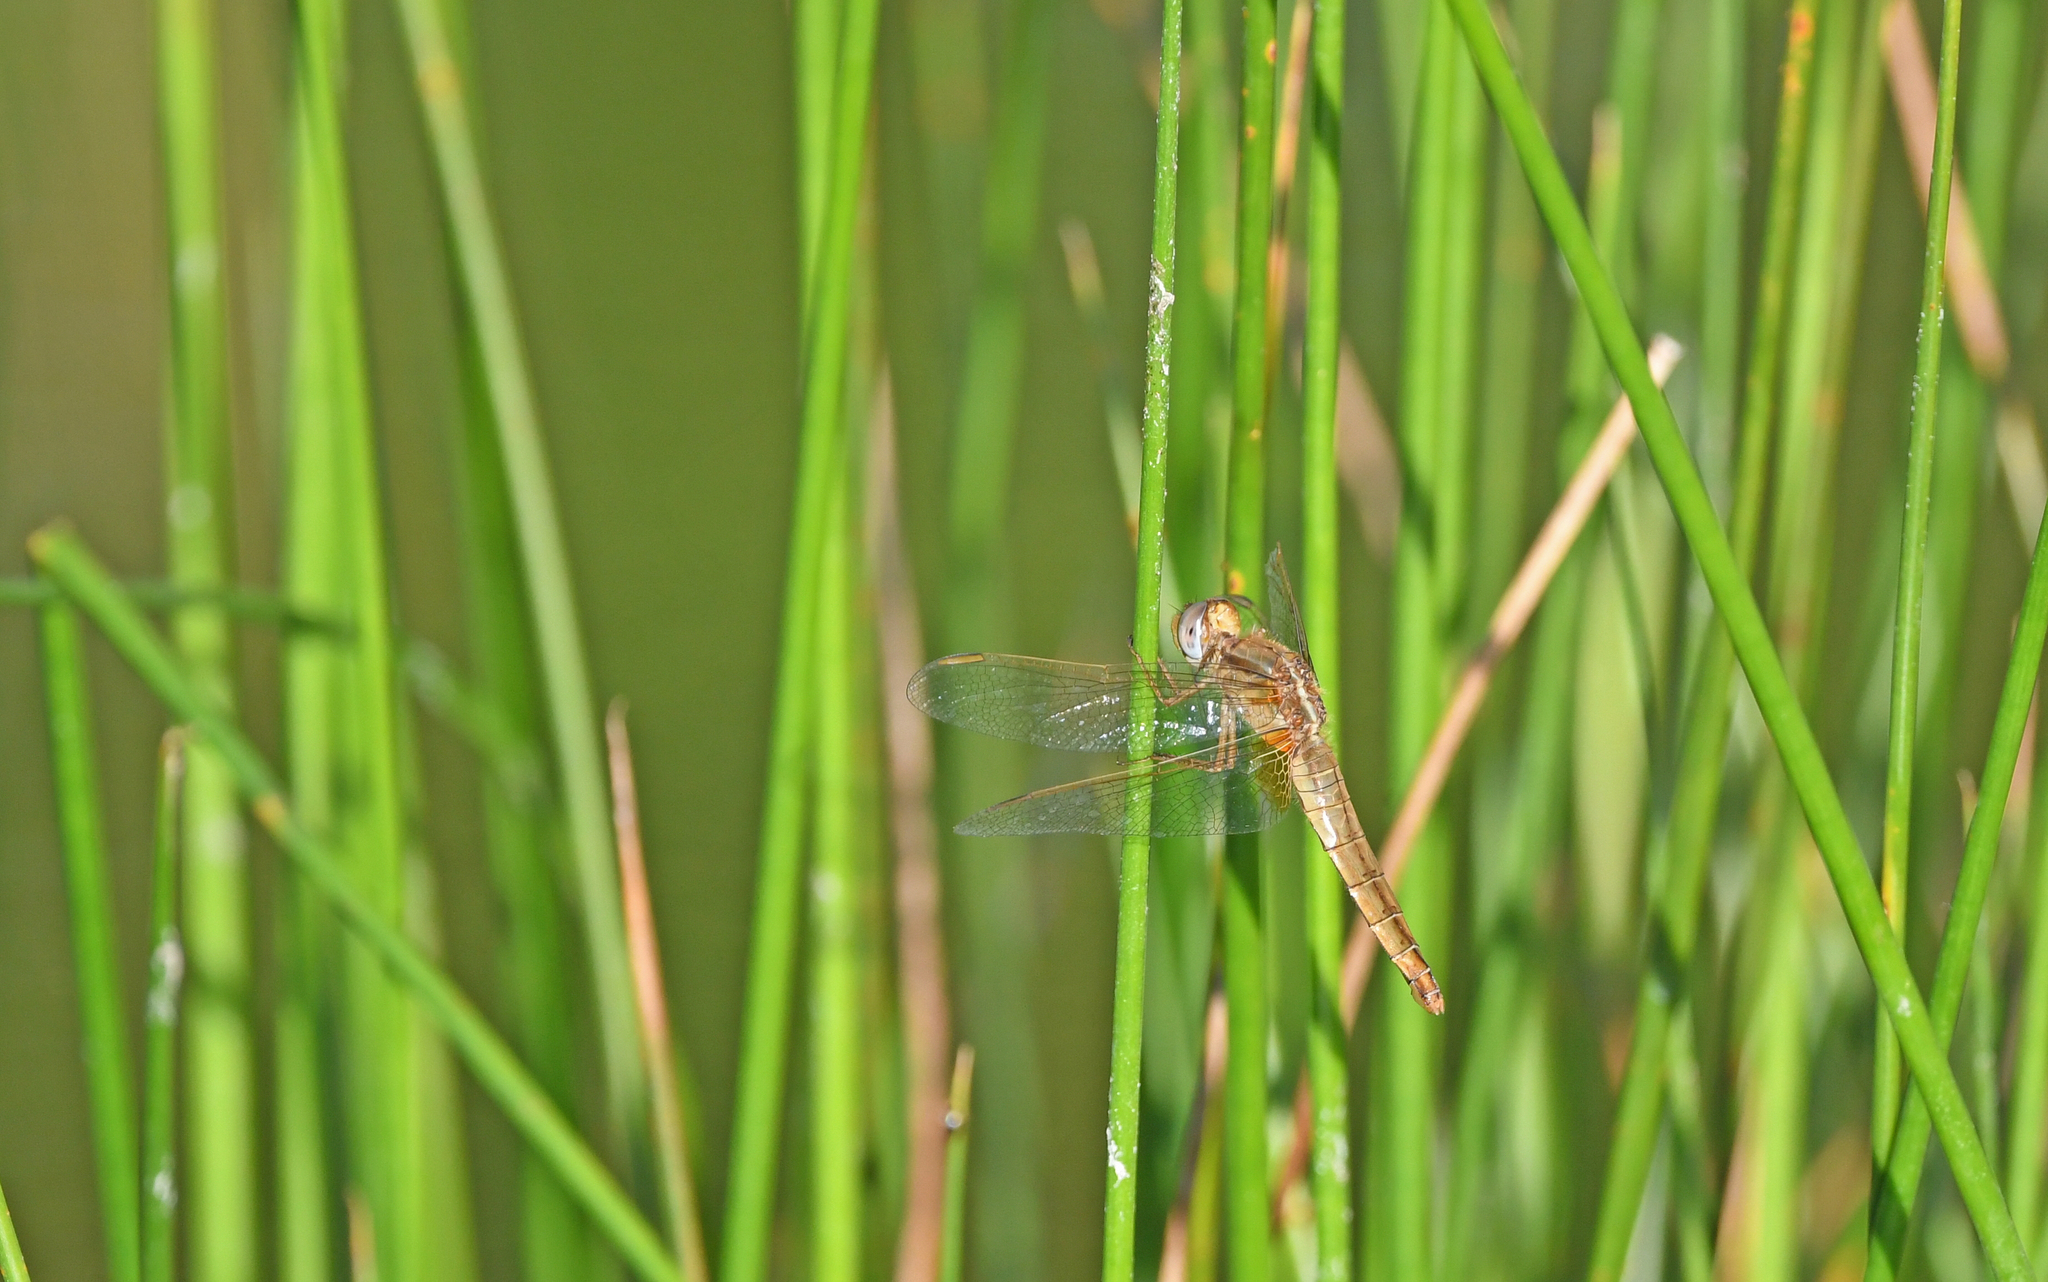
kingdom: Animalia
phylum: Arthropoda
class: Insecta
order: Odonata
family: Libellulidae
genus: Crocothemis
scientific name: Crocothemis erythraea
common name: Scarlet dragonfly
